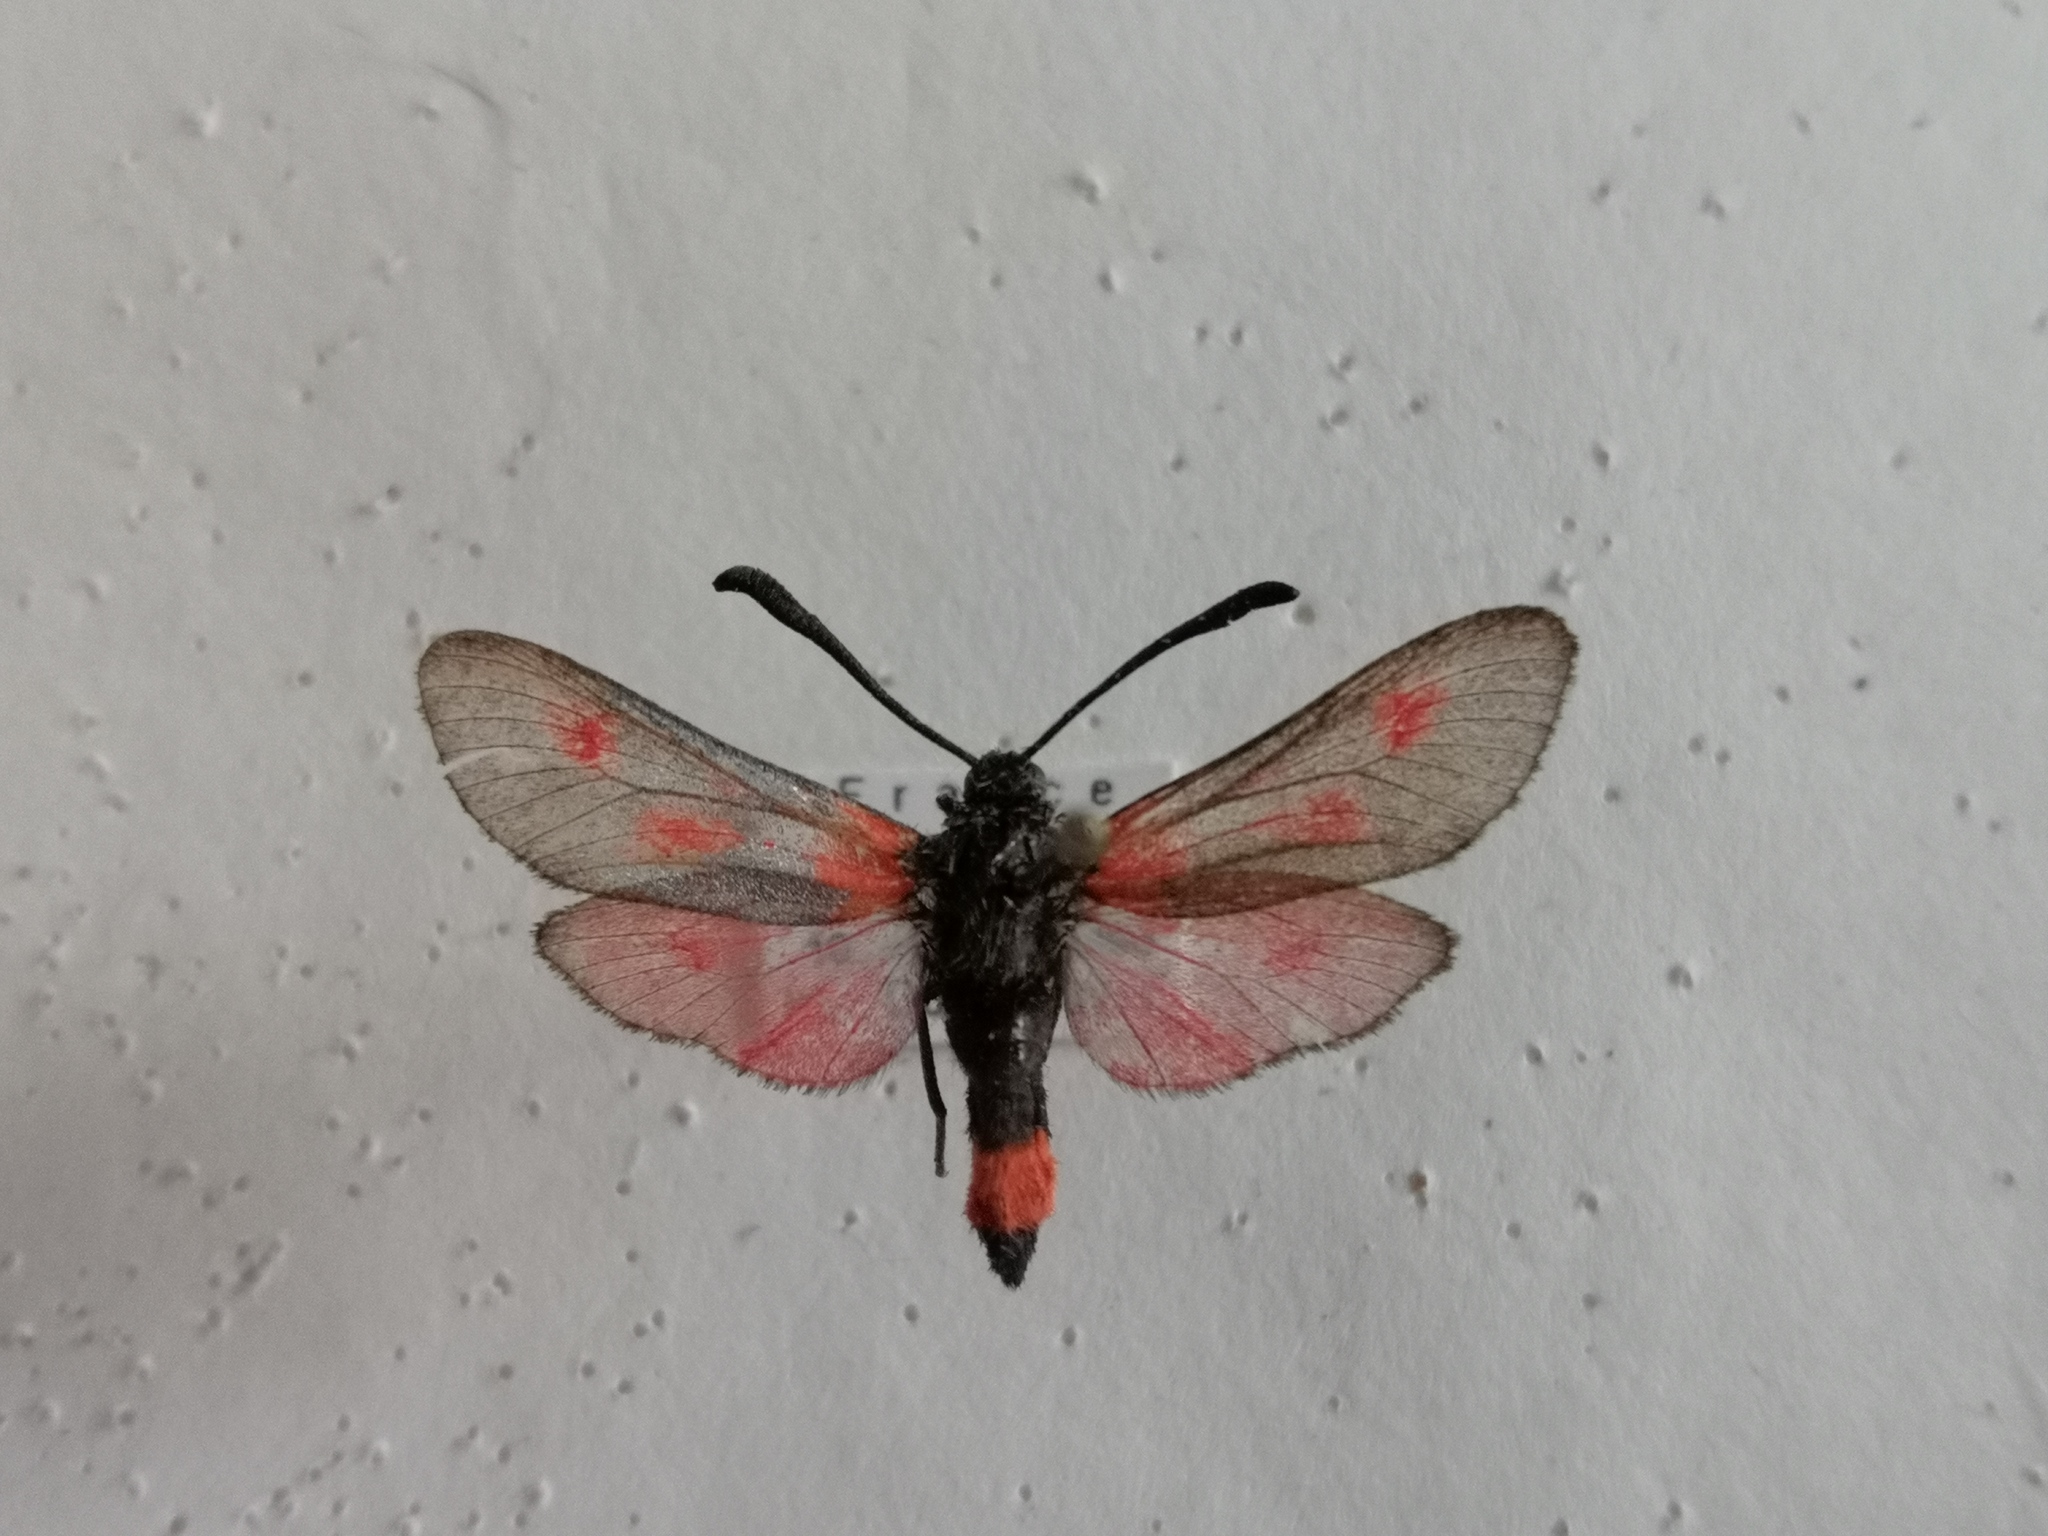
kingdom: Animalia
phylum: Arthropoda
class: Insecta
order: Lepidoptera
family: Zygaenidae
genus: Zygaena
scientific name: Zygaena sarpedon
